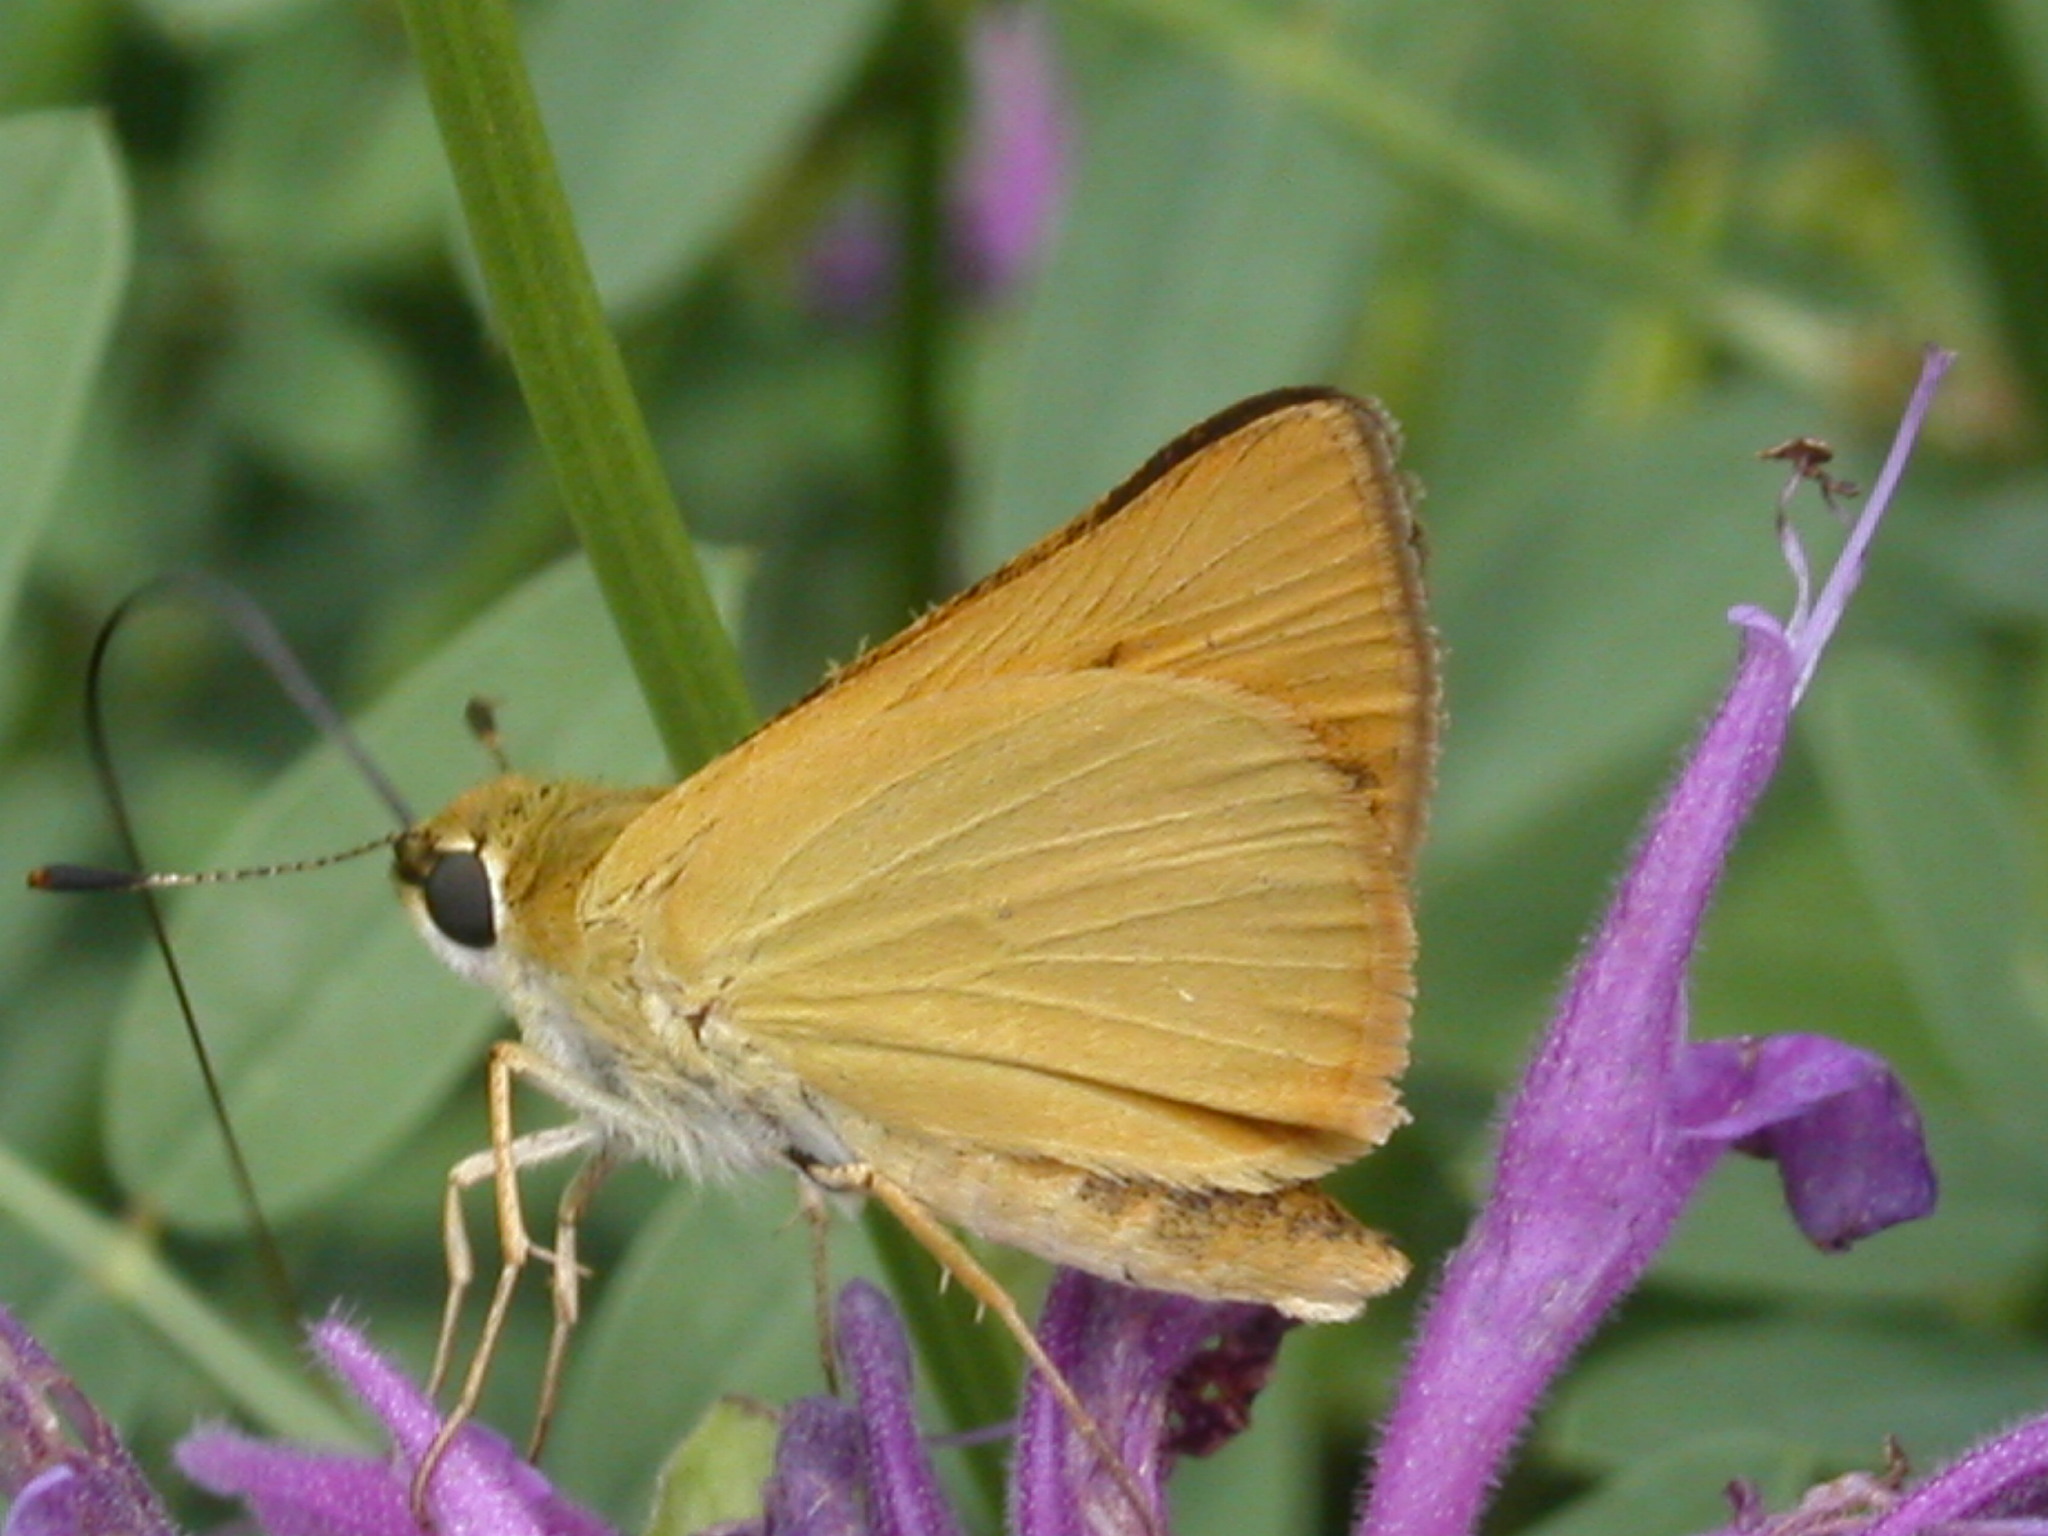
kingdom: Animalia
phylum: Arthropoda
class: Insecta
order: Lepidoptera
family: Hesperiidae
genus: Atrytone
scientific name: Atrytone delaware
